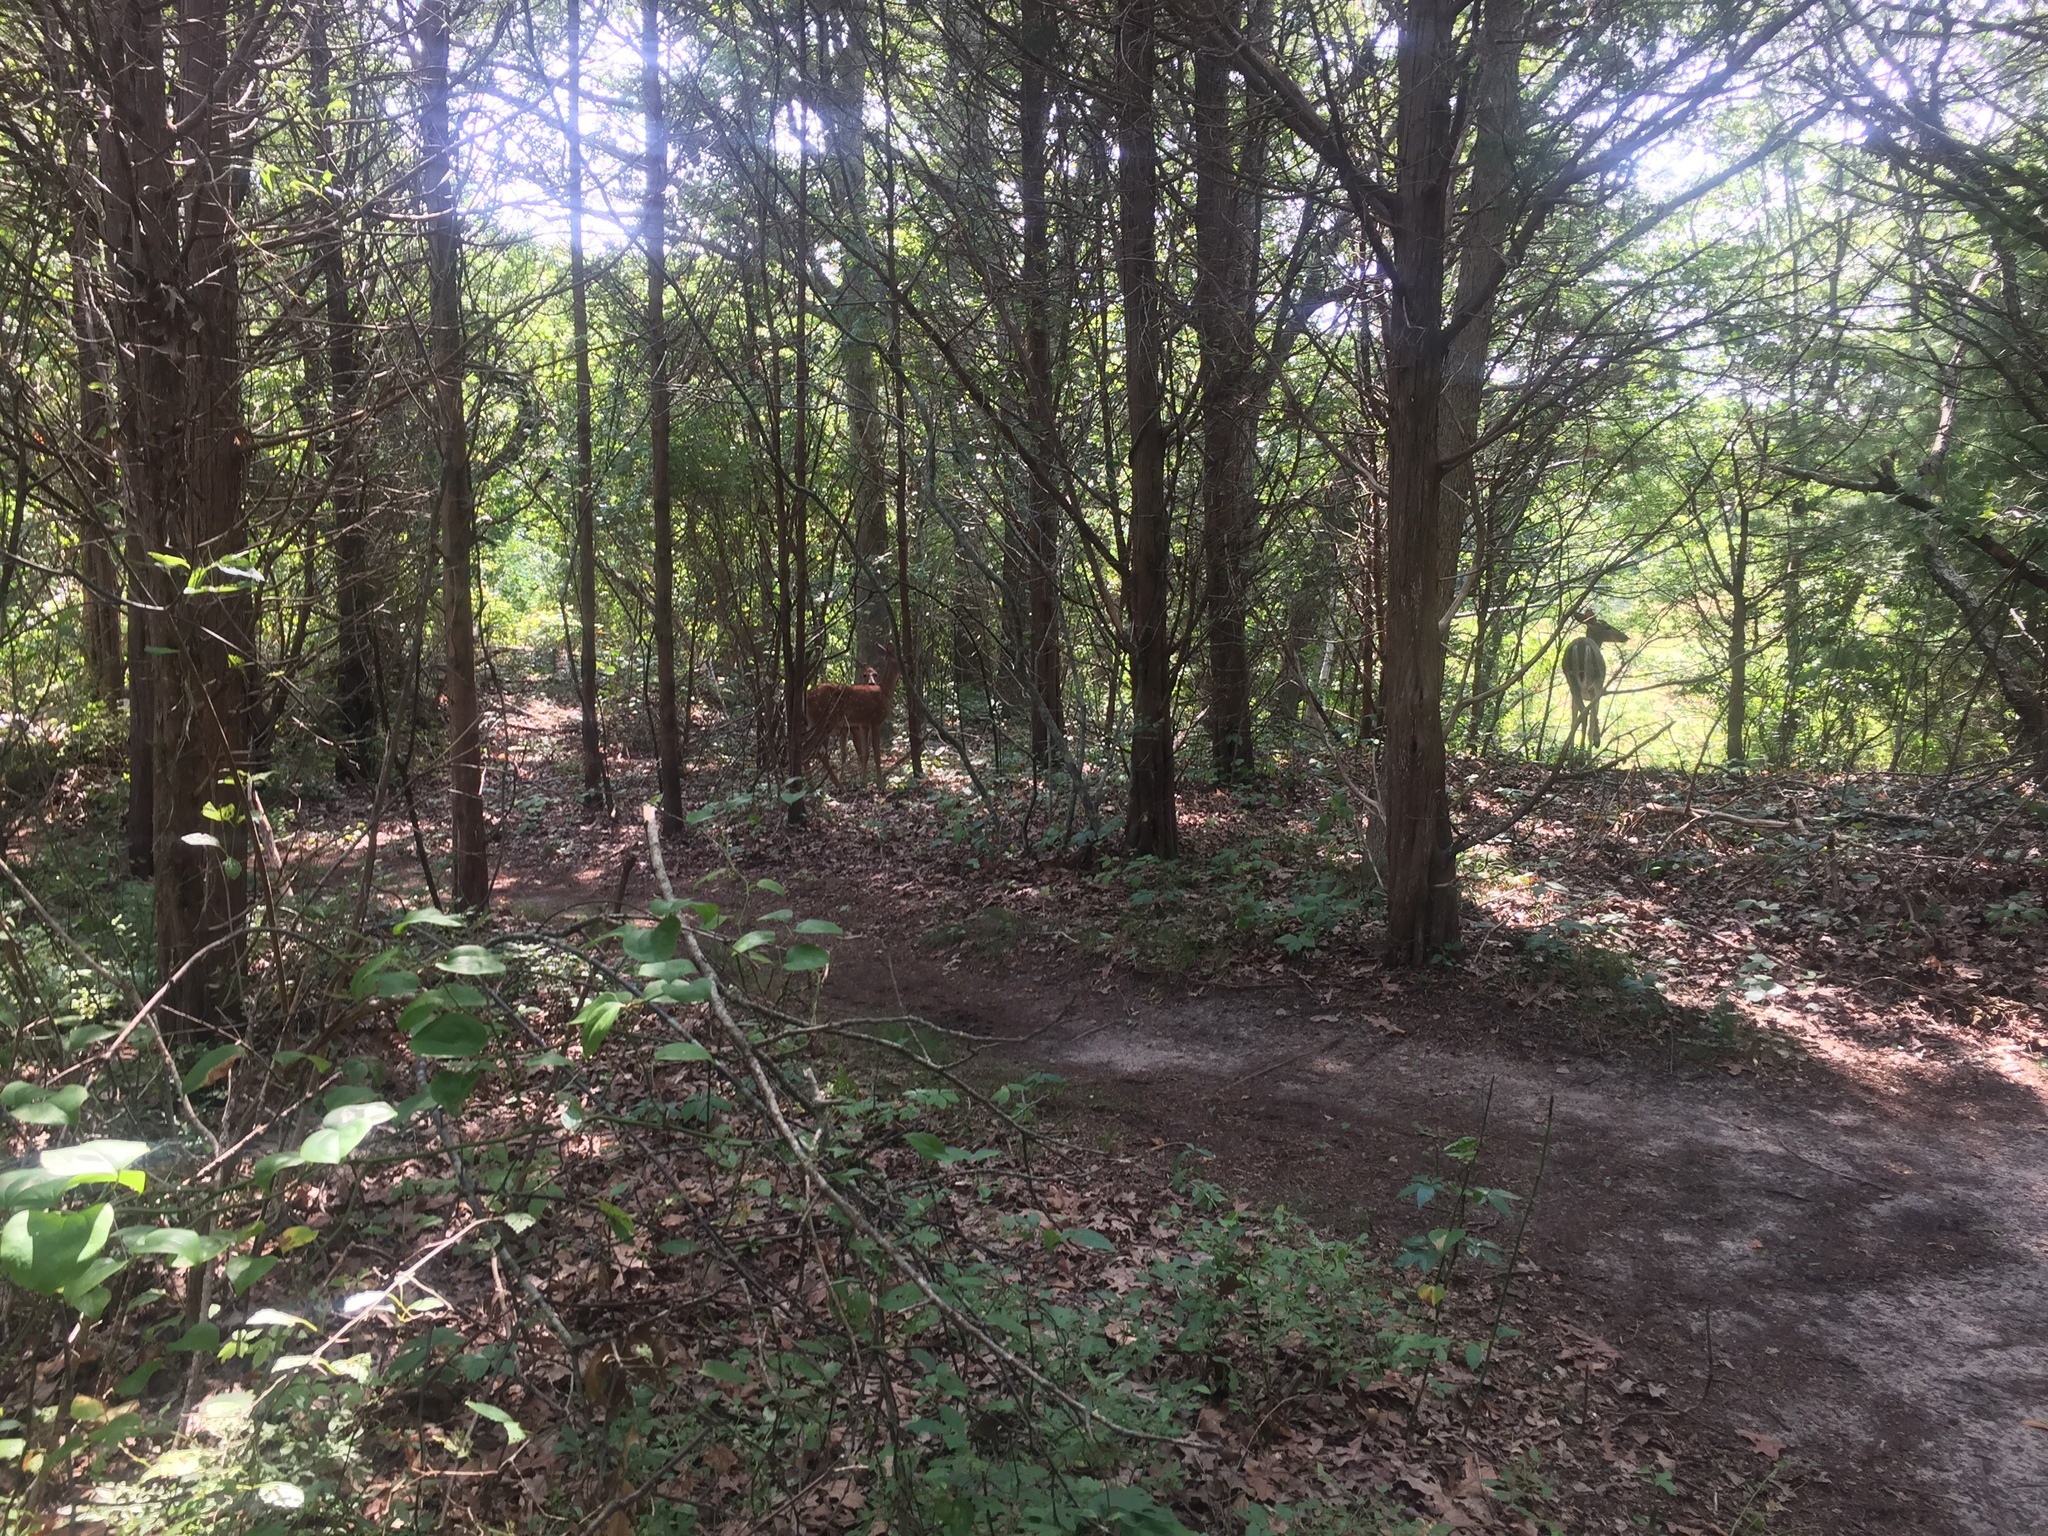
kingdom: Animalia
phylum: Chordata
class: Mammalia
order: Artiodactyla
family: Cervidae
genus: Odocoileus
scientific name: Odocoileus virginianus
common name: White-tailed deer
